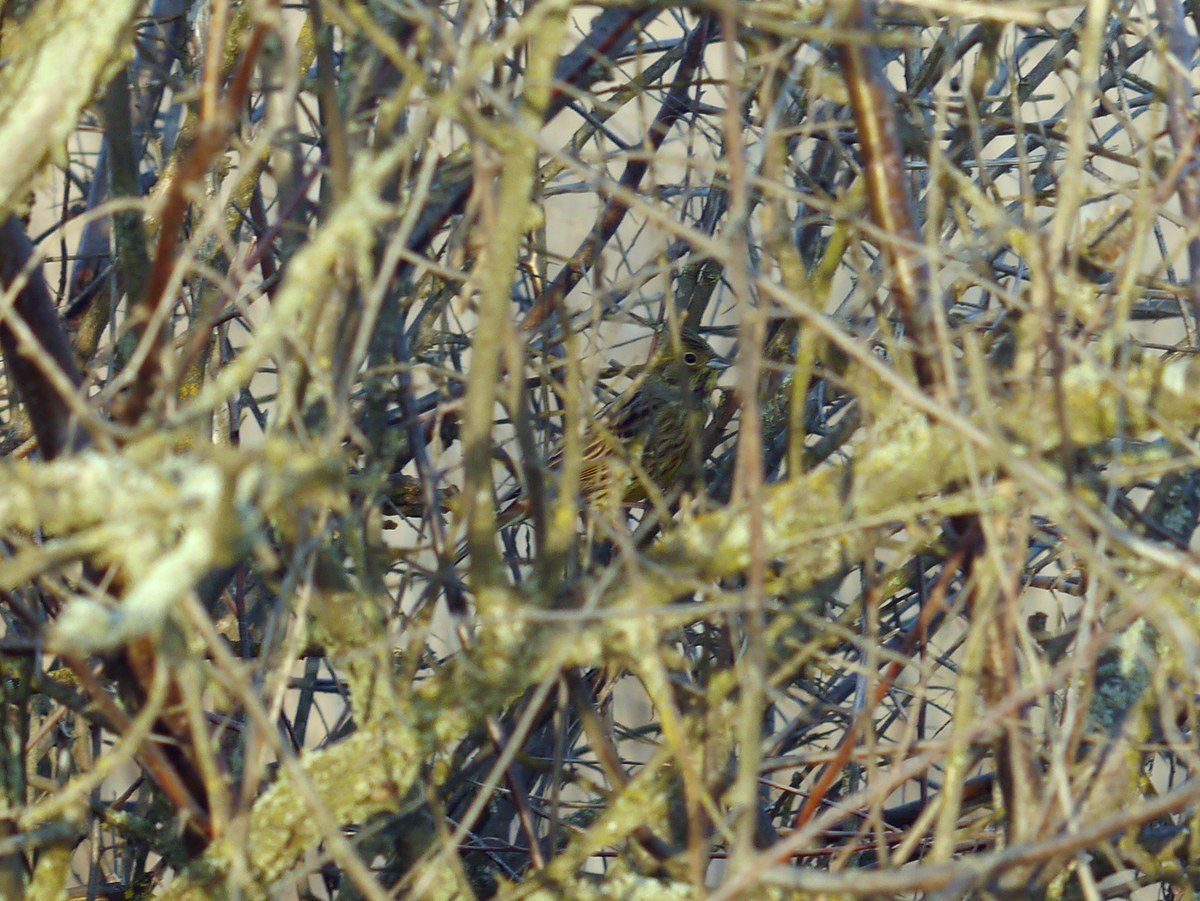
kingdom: Animalia
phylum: Chordata
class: Aves
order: Passeriformes
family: Emberizidae
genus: Emberiza
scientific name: Emberiza citrinella
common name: Yellowhammer
